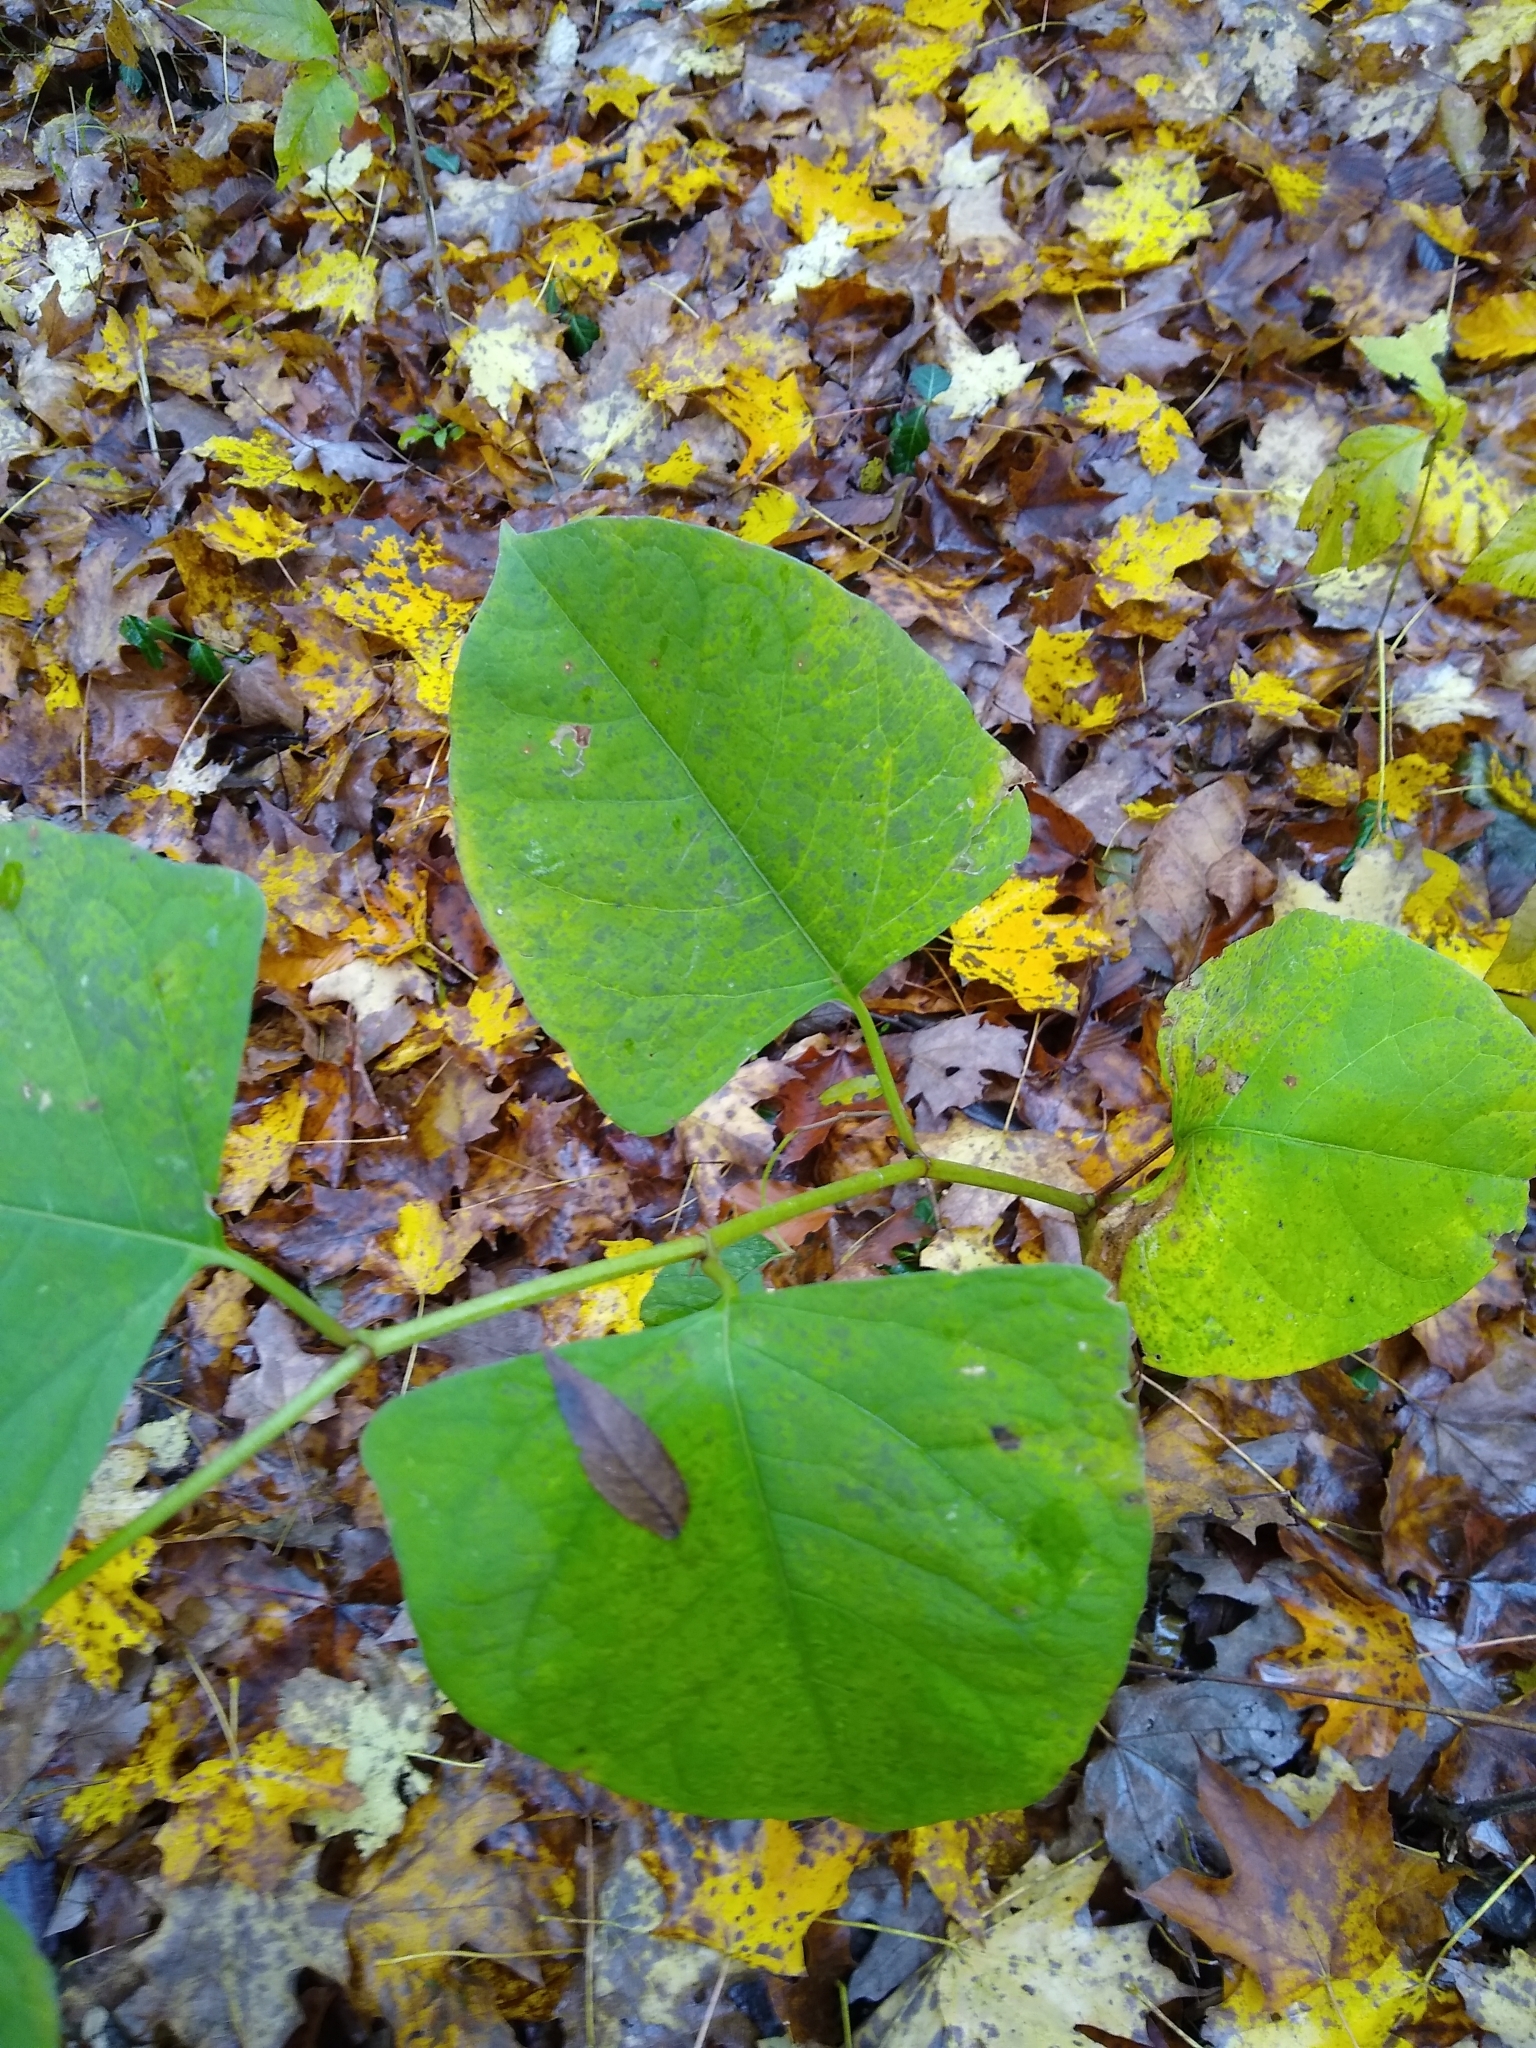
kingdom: Plantae
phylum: Tracheophyta
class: Magnoliopsida
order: Caryophyllales
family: Polygonaceae
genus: Reynoutria
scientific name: Reynoutria japonica
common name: Japanese knotweed
